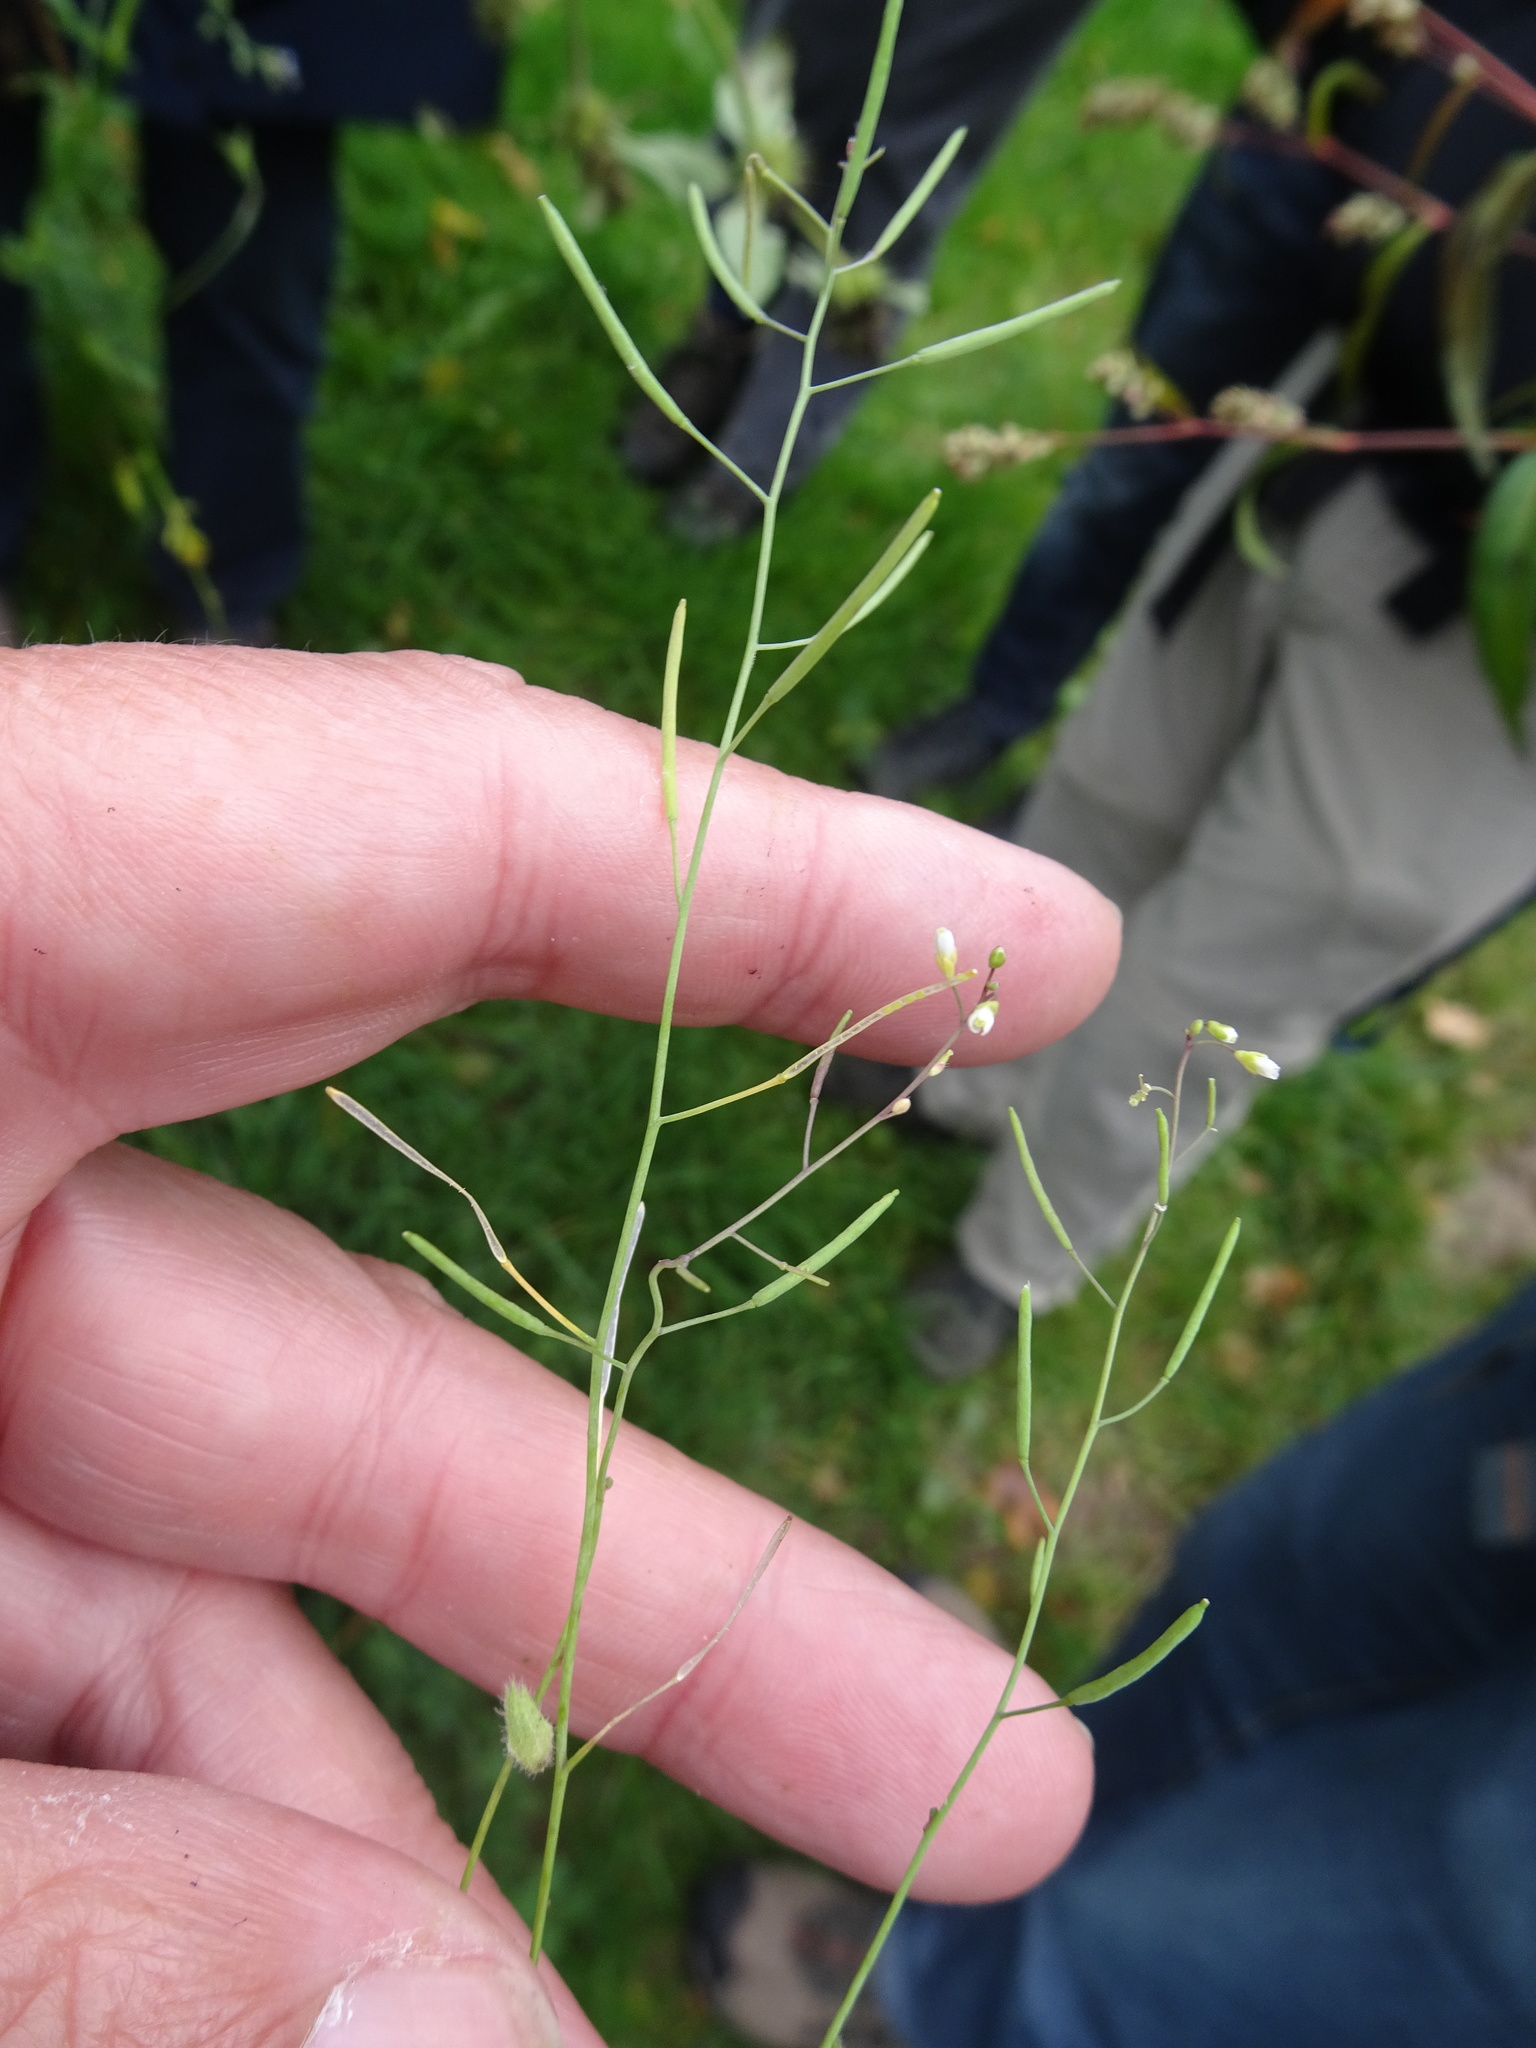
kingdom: Plantae
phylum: Tracheophyta
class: Magnoliopsida
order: Brassicales
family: Brassicaceae
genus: Arabidopsis
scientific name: Arabidopsis thaliana
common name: Thale cress
